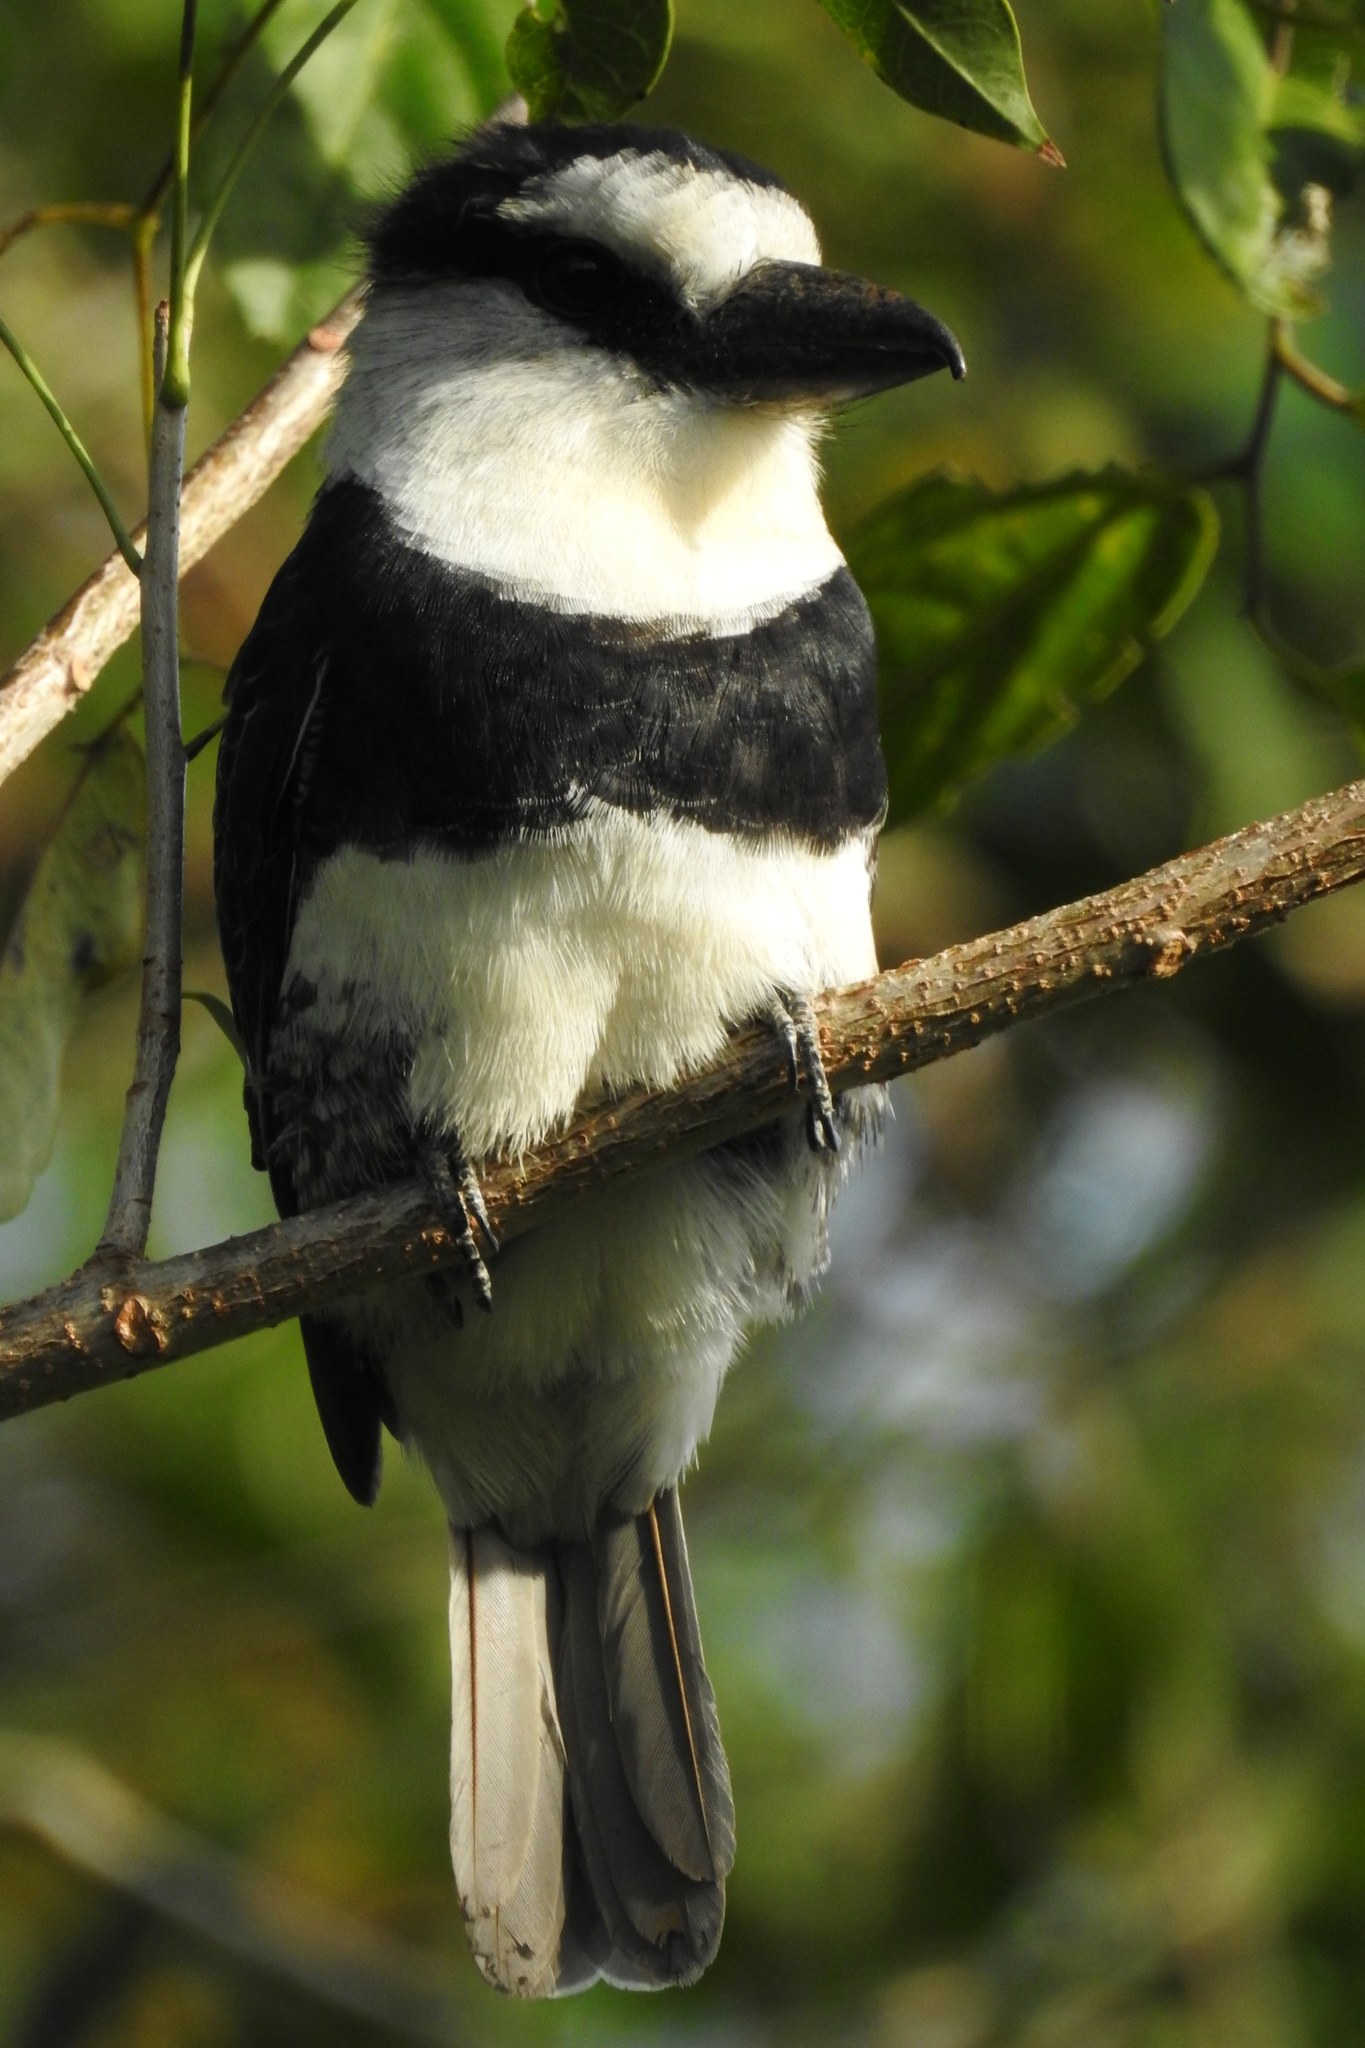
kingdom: Animalia
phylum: Chordata
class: Aves
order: Piciformes
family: Bucconidae
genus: Notharchus
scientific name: Notharchus hyperrhynchus
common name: White-necked puffbird
